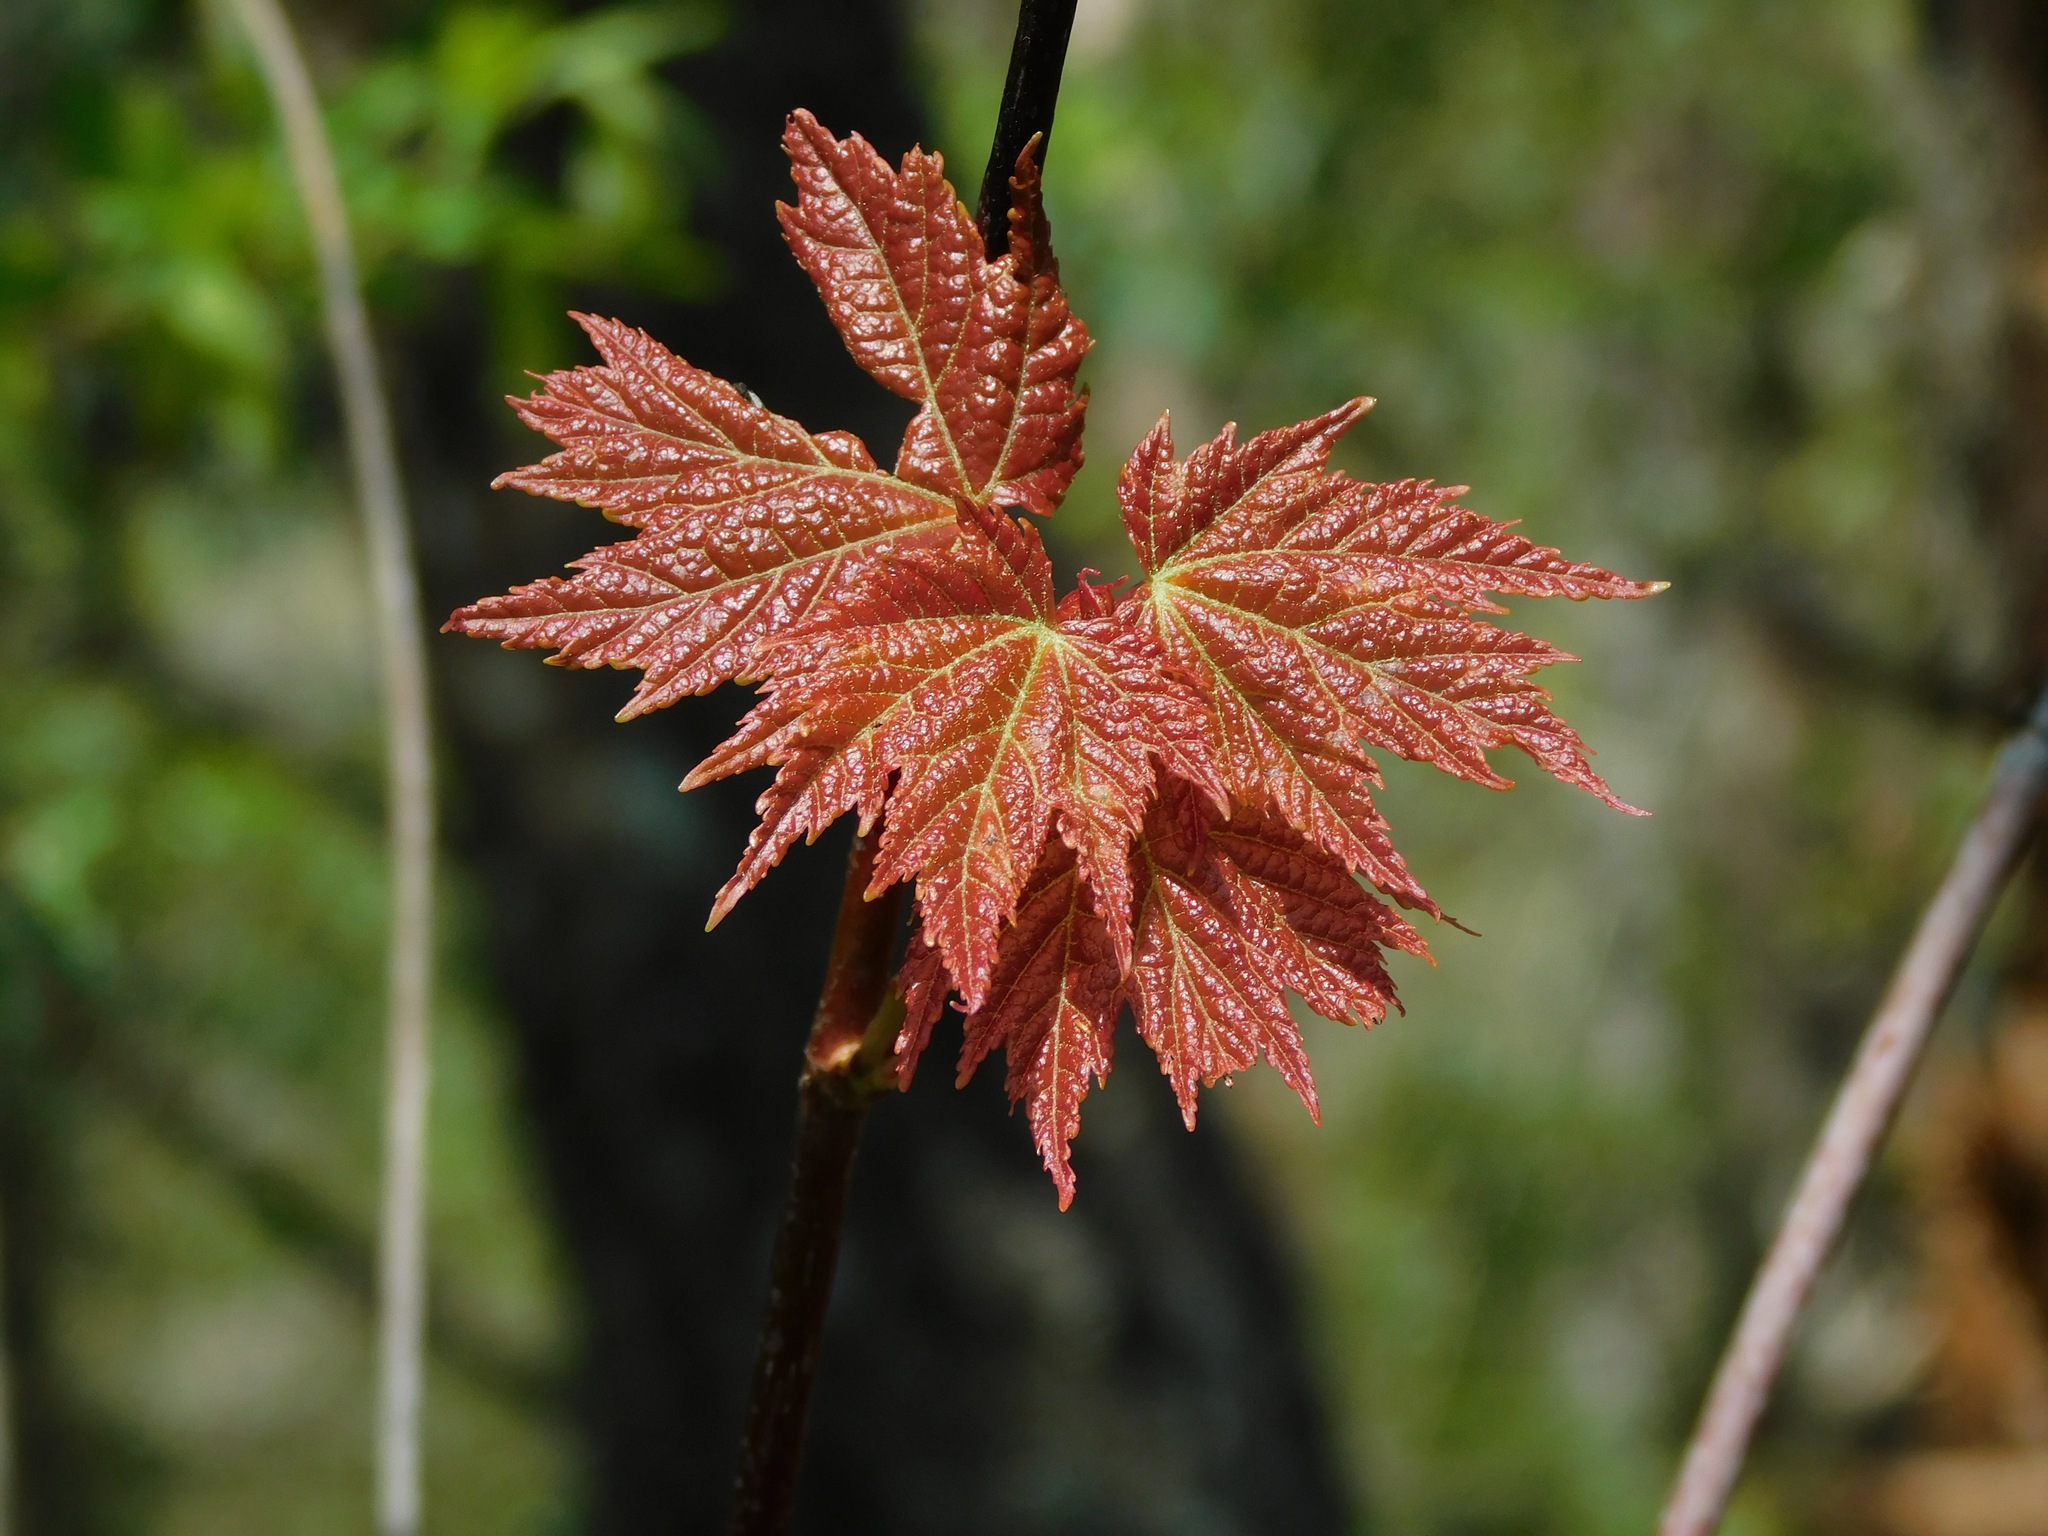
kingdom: Plantae
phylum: Tracheophyta
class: Magnoliopsida
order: Sapindales
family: Sapindaceae
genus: Acer
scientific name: Acer freemanii
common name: Freeman maple
